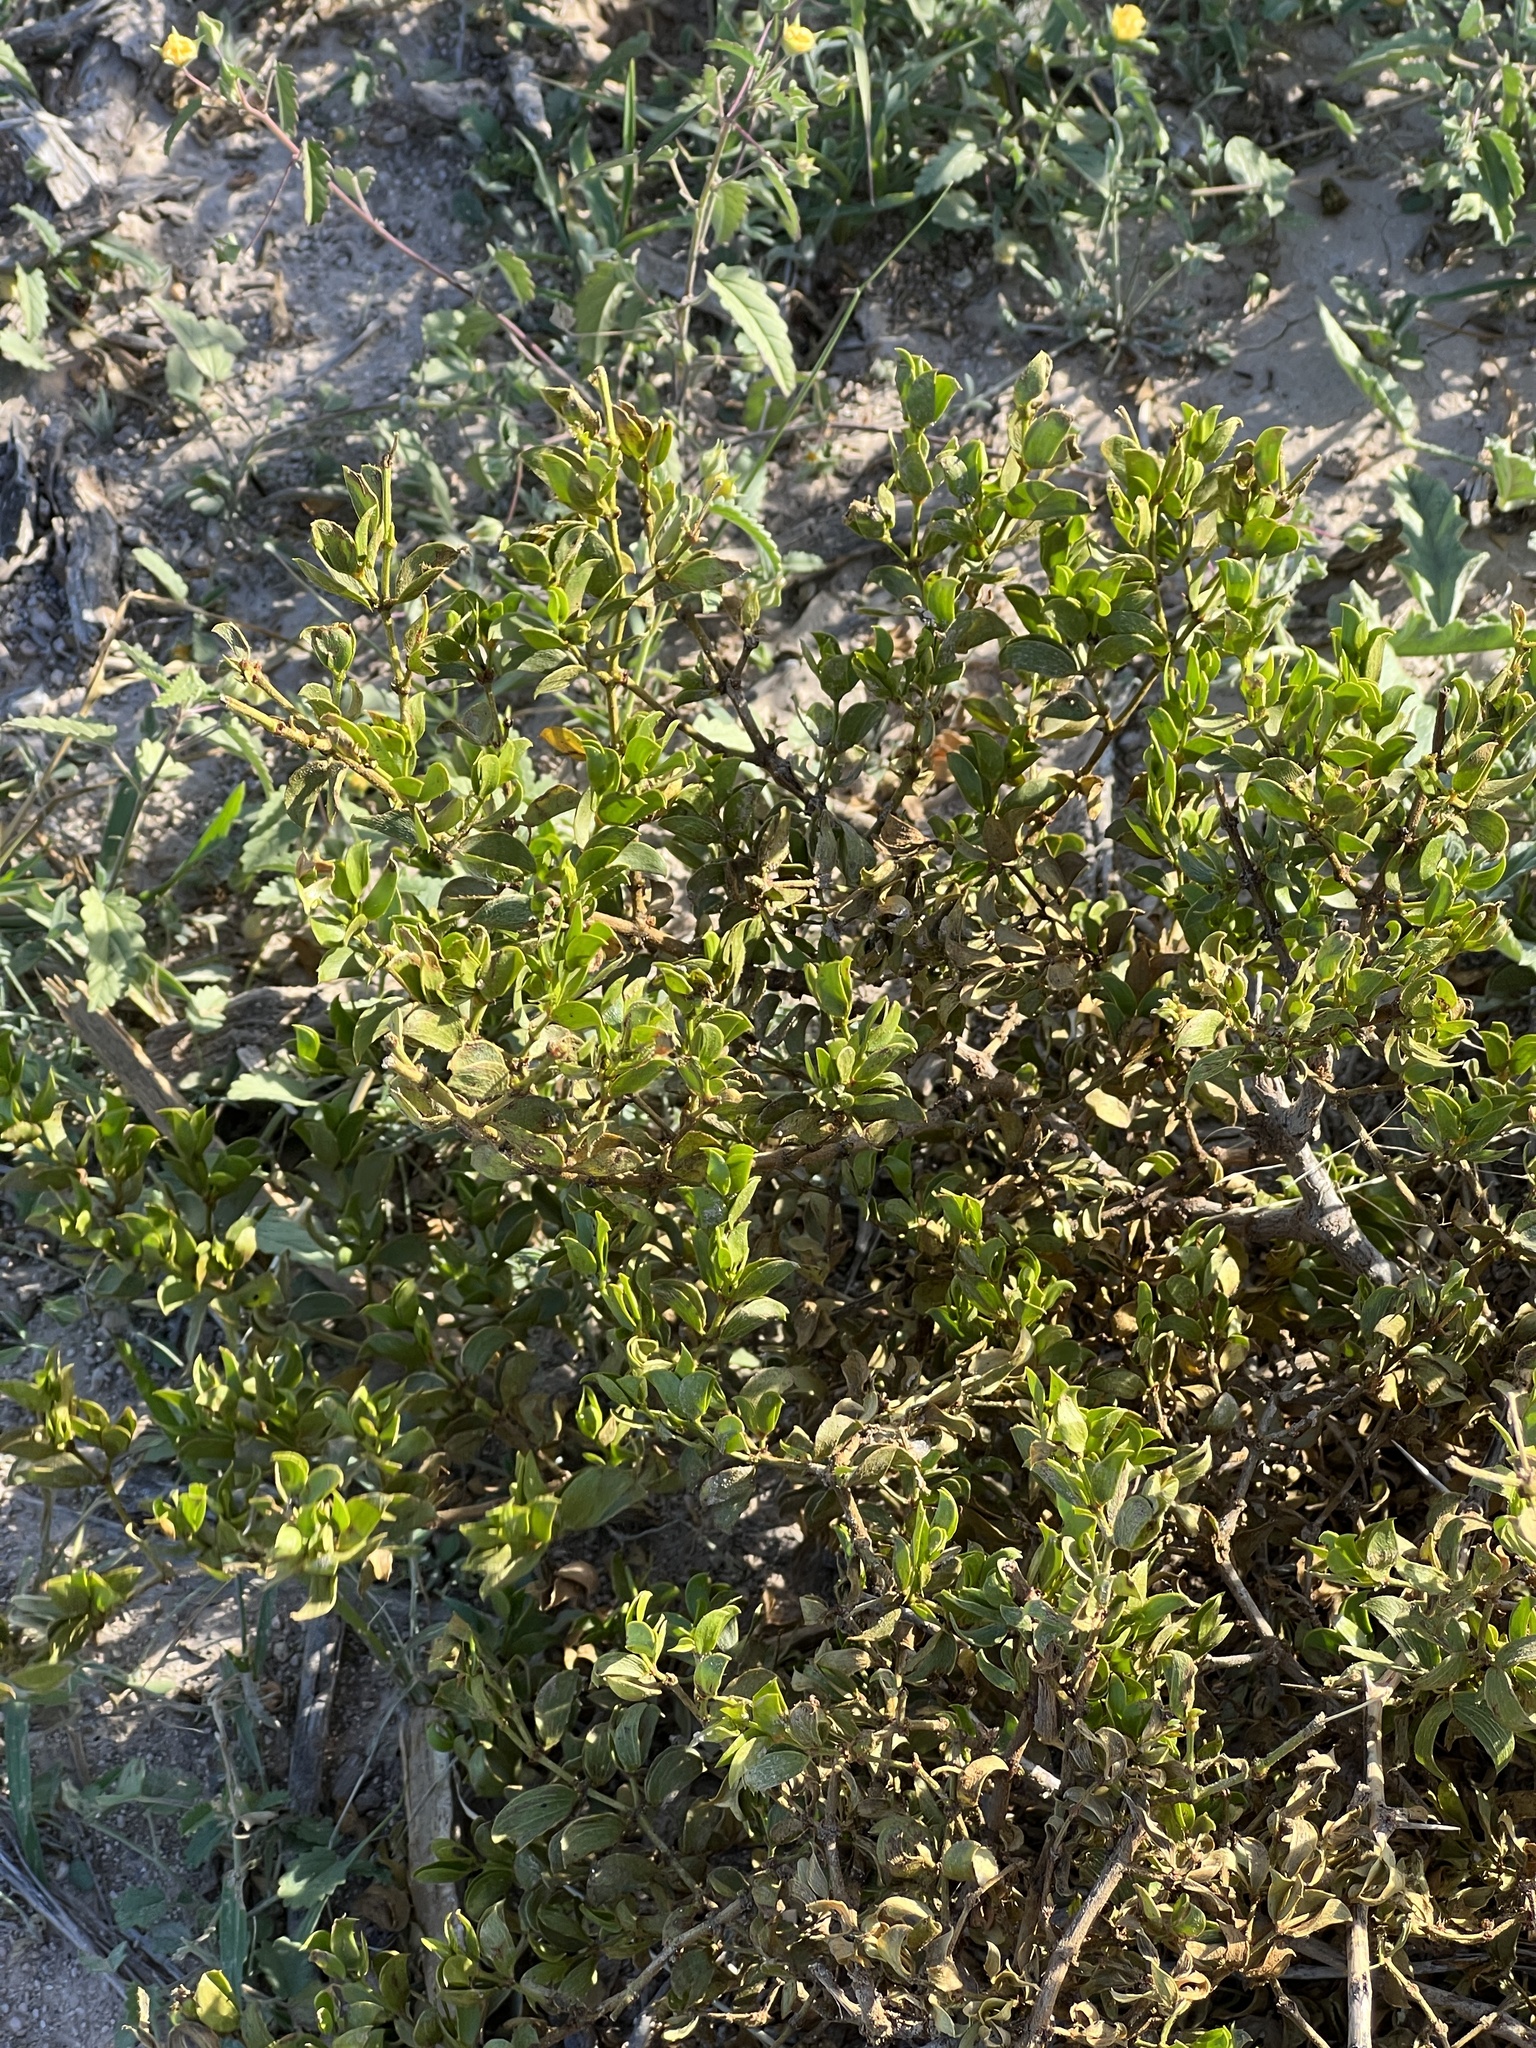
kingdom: Plantae
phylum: Tracheophyta
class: Magnoliopsida
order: Zygophyllales
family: Zygophyllaceae
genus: Larrea
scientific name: Larrea tridentata
